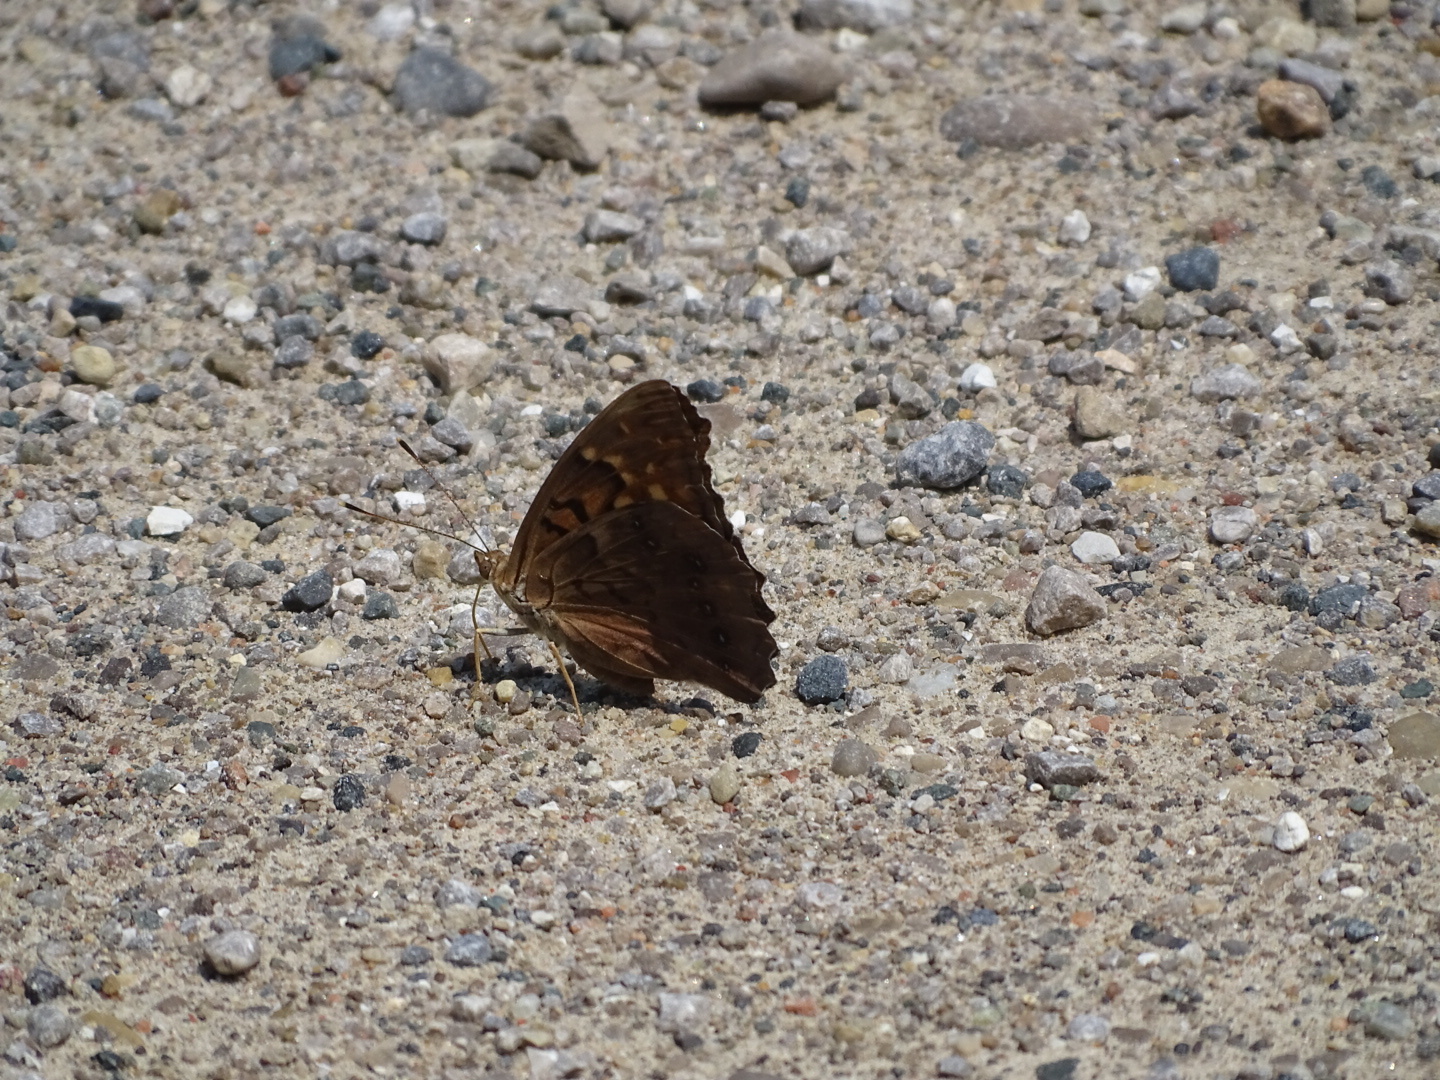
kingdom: Animalia
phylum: Arthropoda
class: Insecta
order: Lepidoptera
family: Nymphalidae
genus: Asterocampa
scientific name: Asterocampa clyton
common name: Tawny emperor
